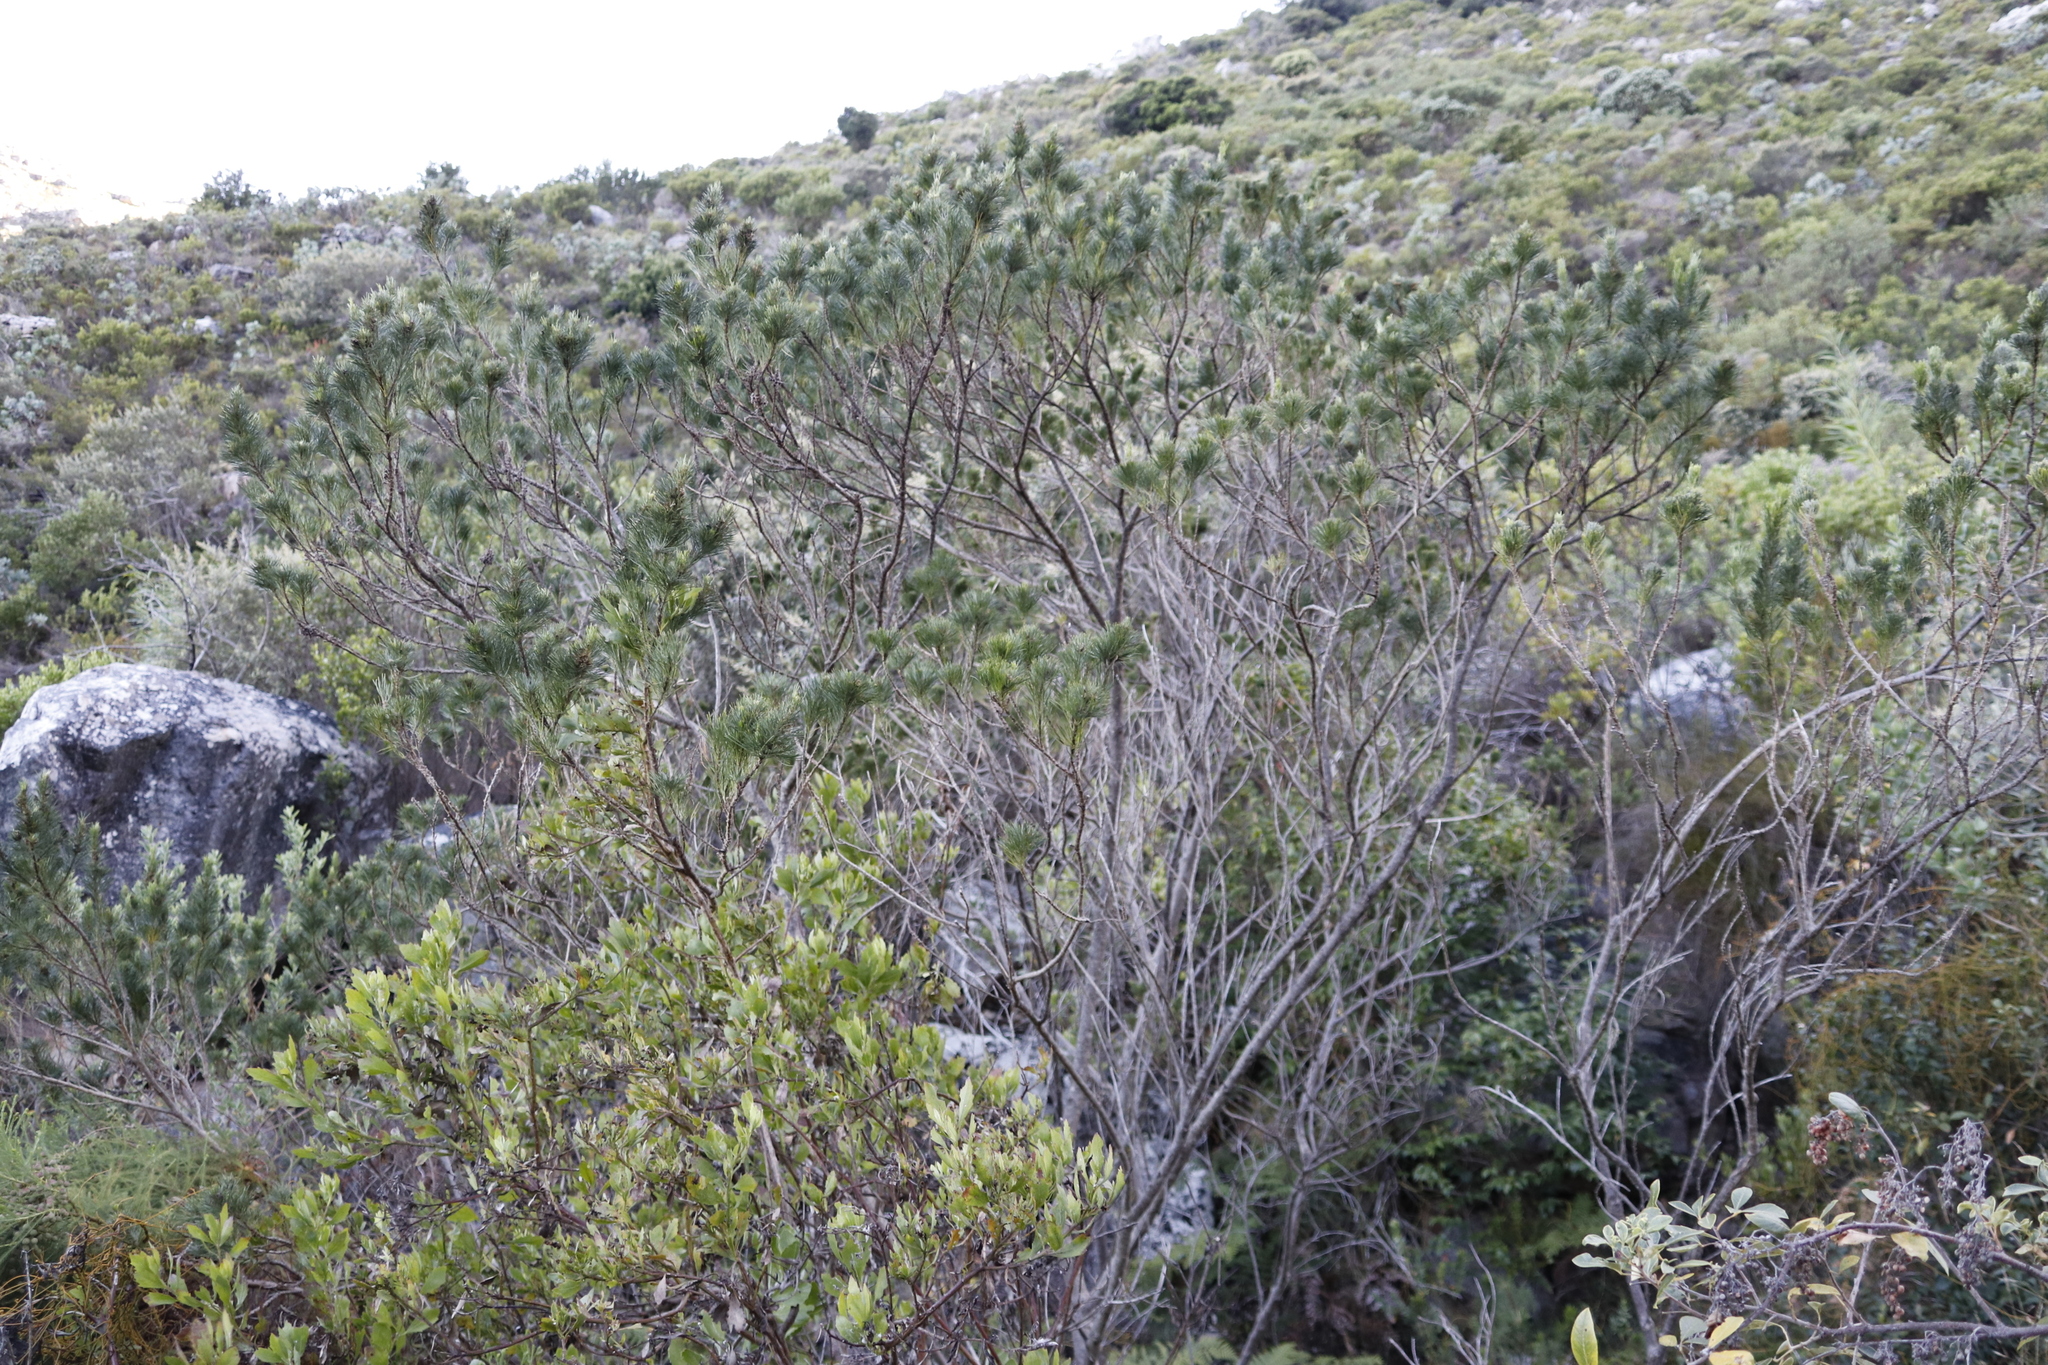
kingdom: Plantae
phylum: Tracheophyta
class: Magnoliopsida
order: Fabales
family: Fabaceae
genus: Psoralea
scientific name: Psoralea pinnata
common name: African scurfpea
